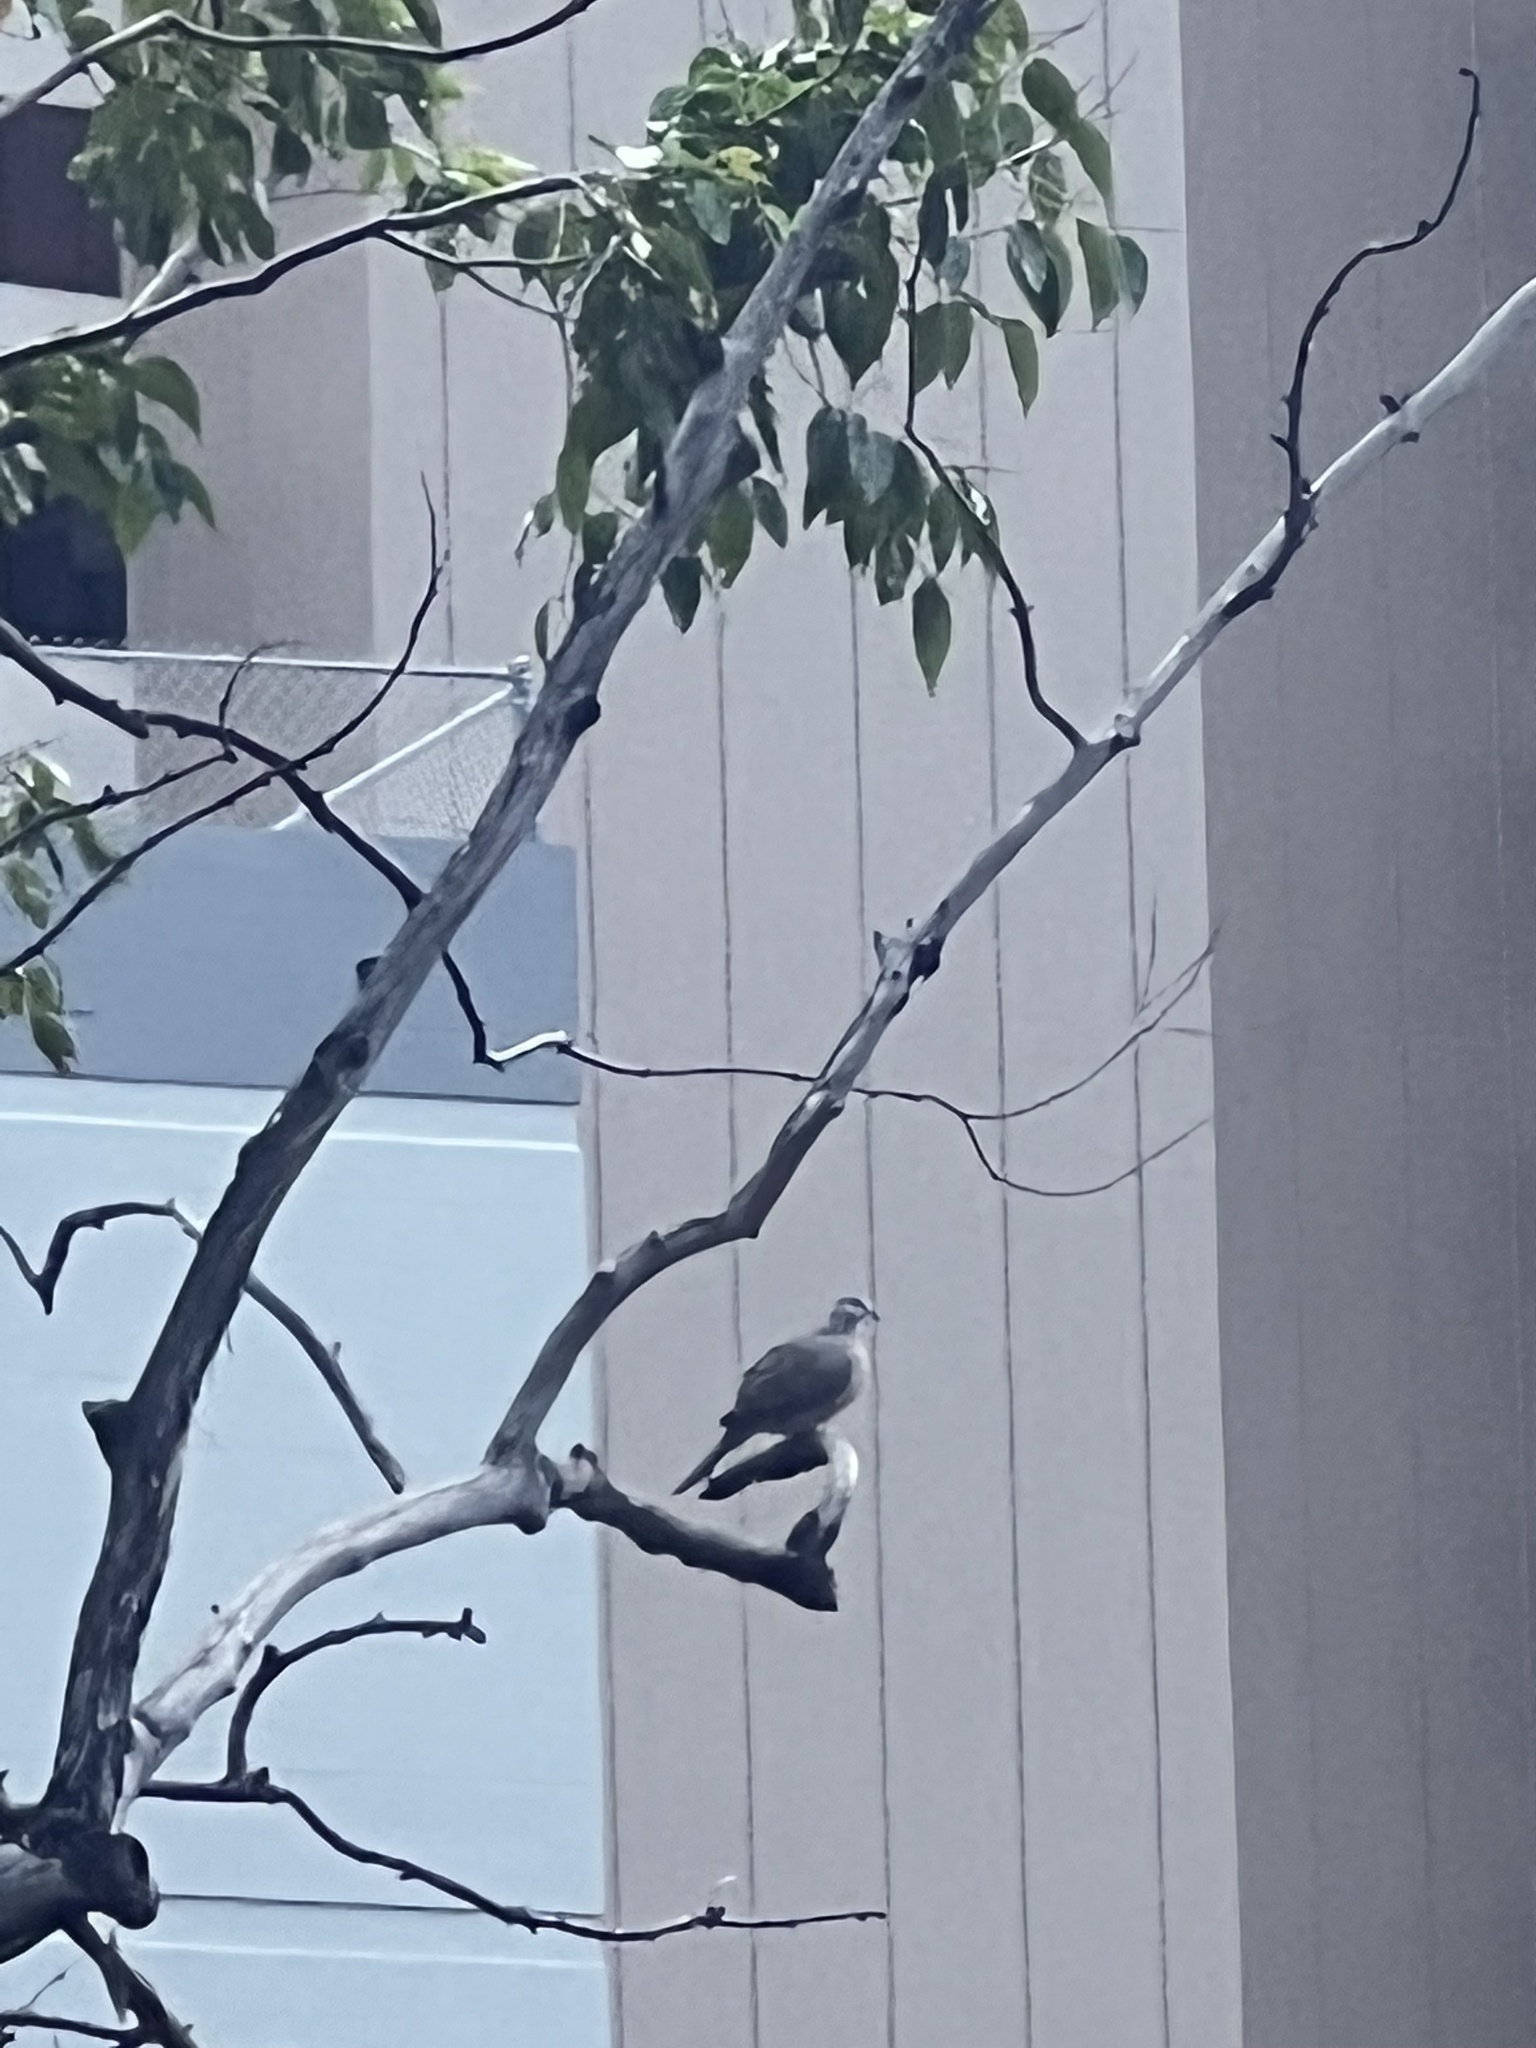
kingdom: Animalia
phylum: Chordata
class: Aves
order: Columbiformes
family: Columbidae
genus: Spilopelia
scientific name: Spilopelia chinensis
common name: Spotted dove
